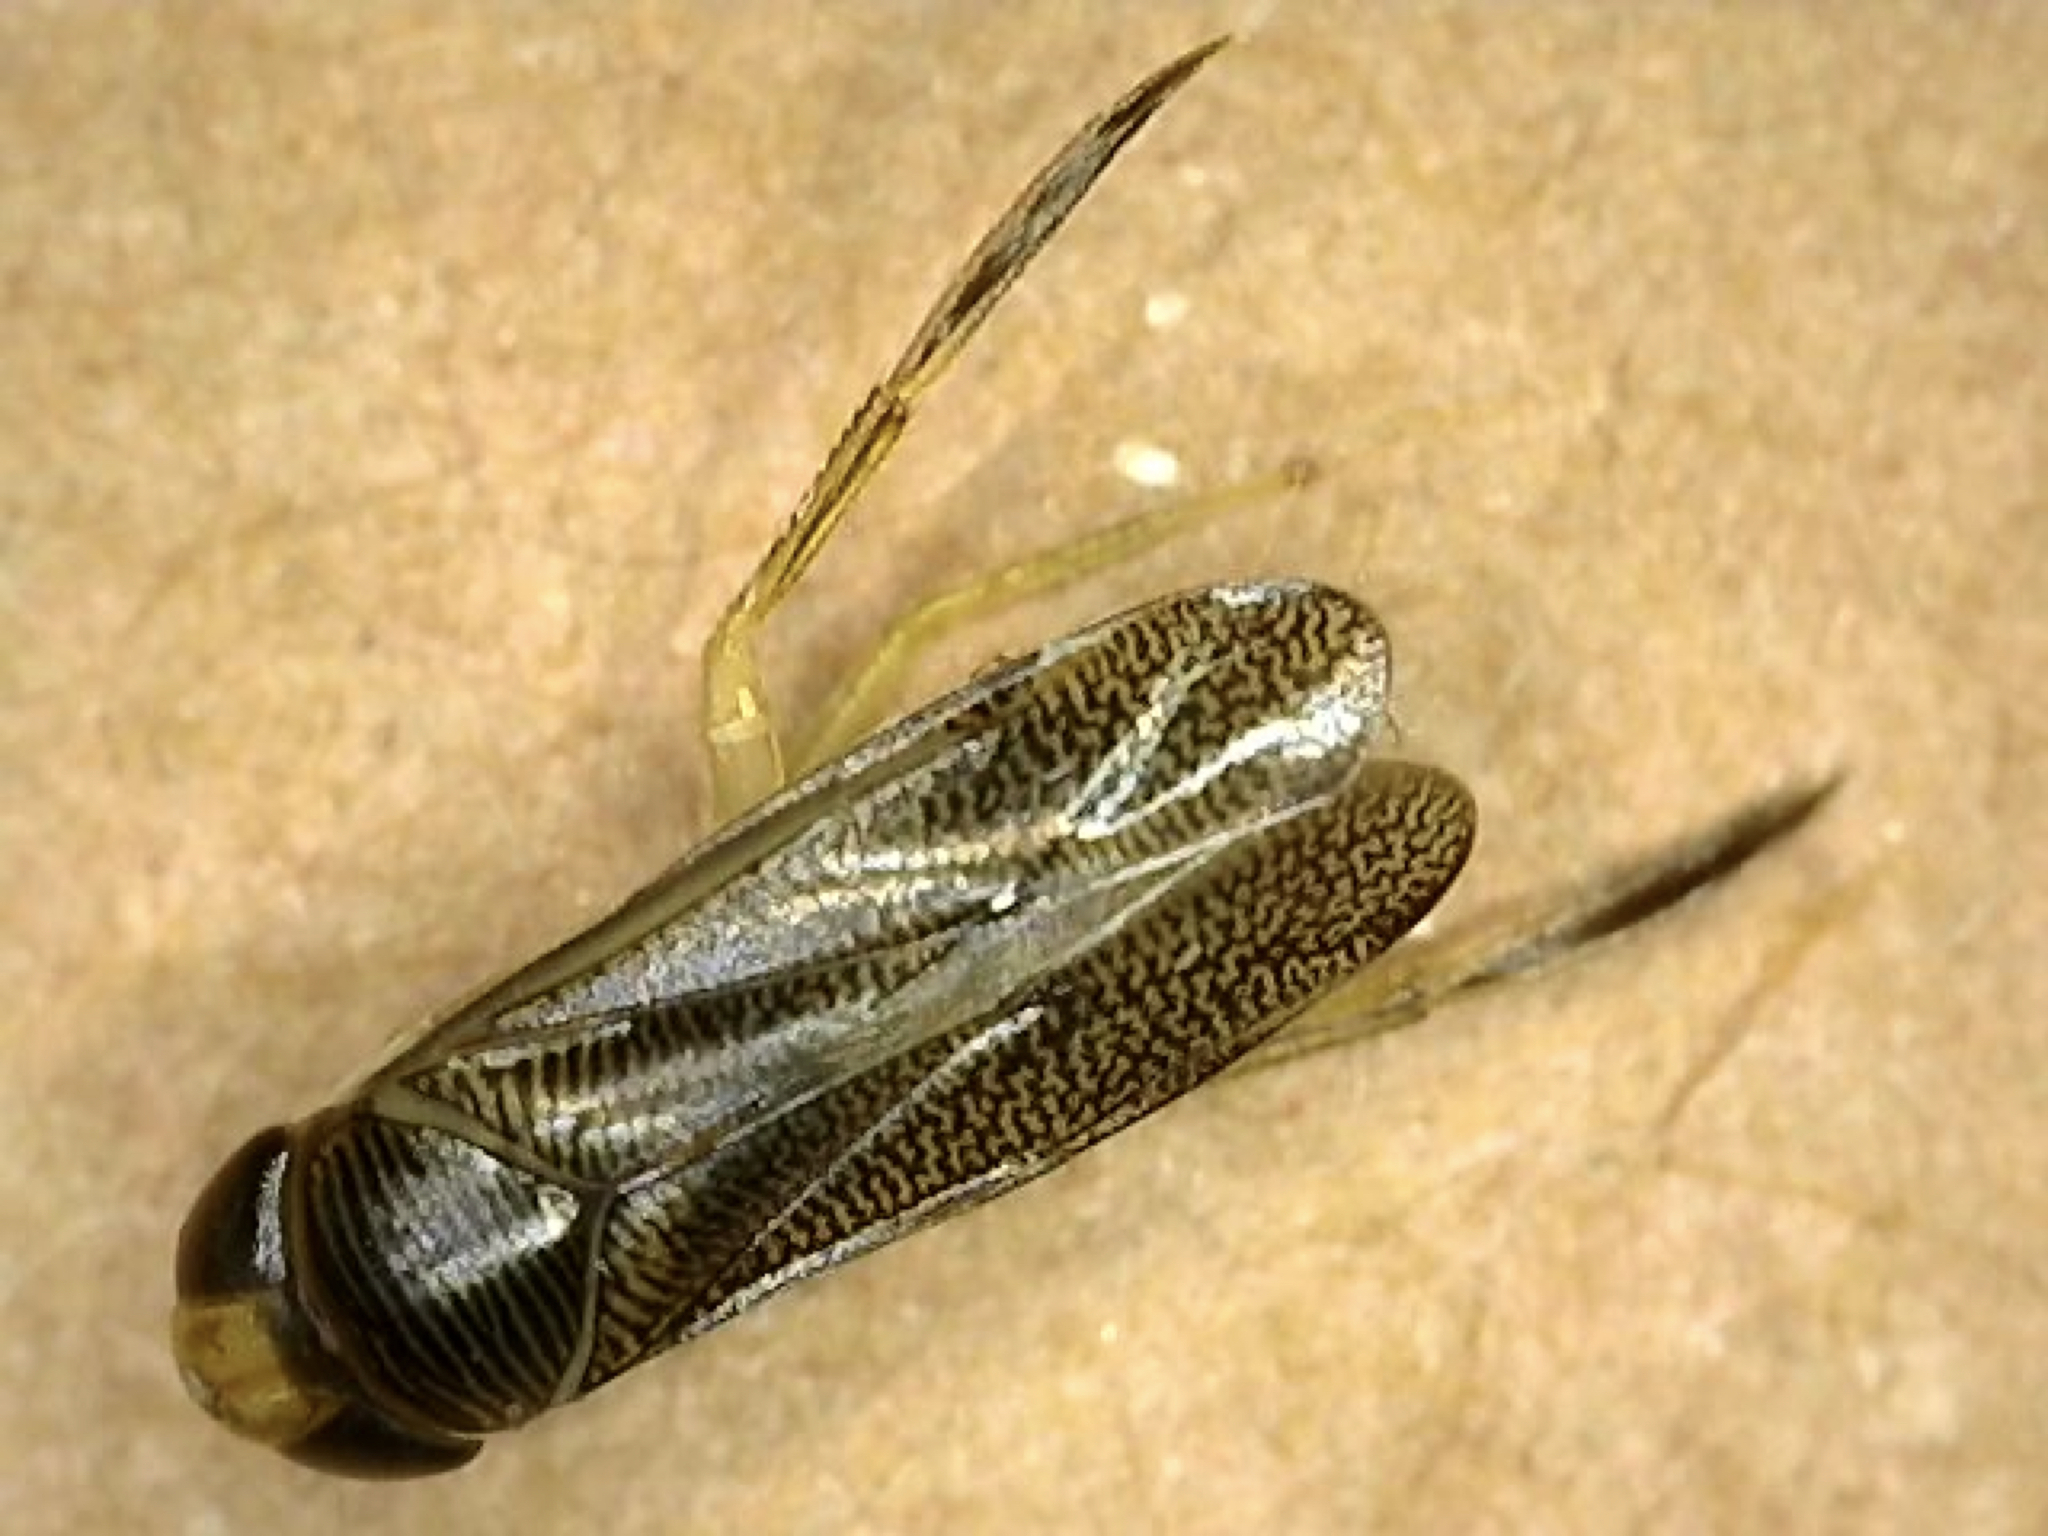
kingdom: Animalia
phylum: Arthropoda
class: Insecta
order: Hemiptera
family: Corixidae
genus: Trichocorixa
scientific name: Trichocorixa
